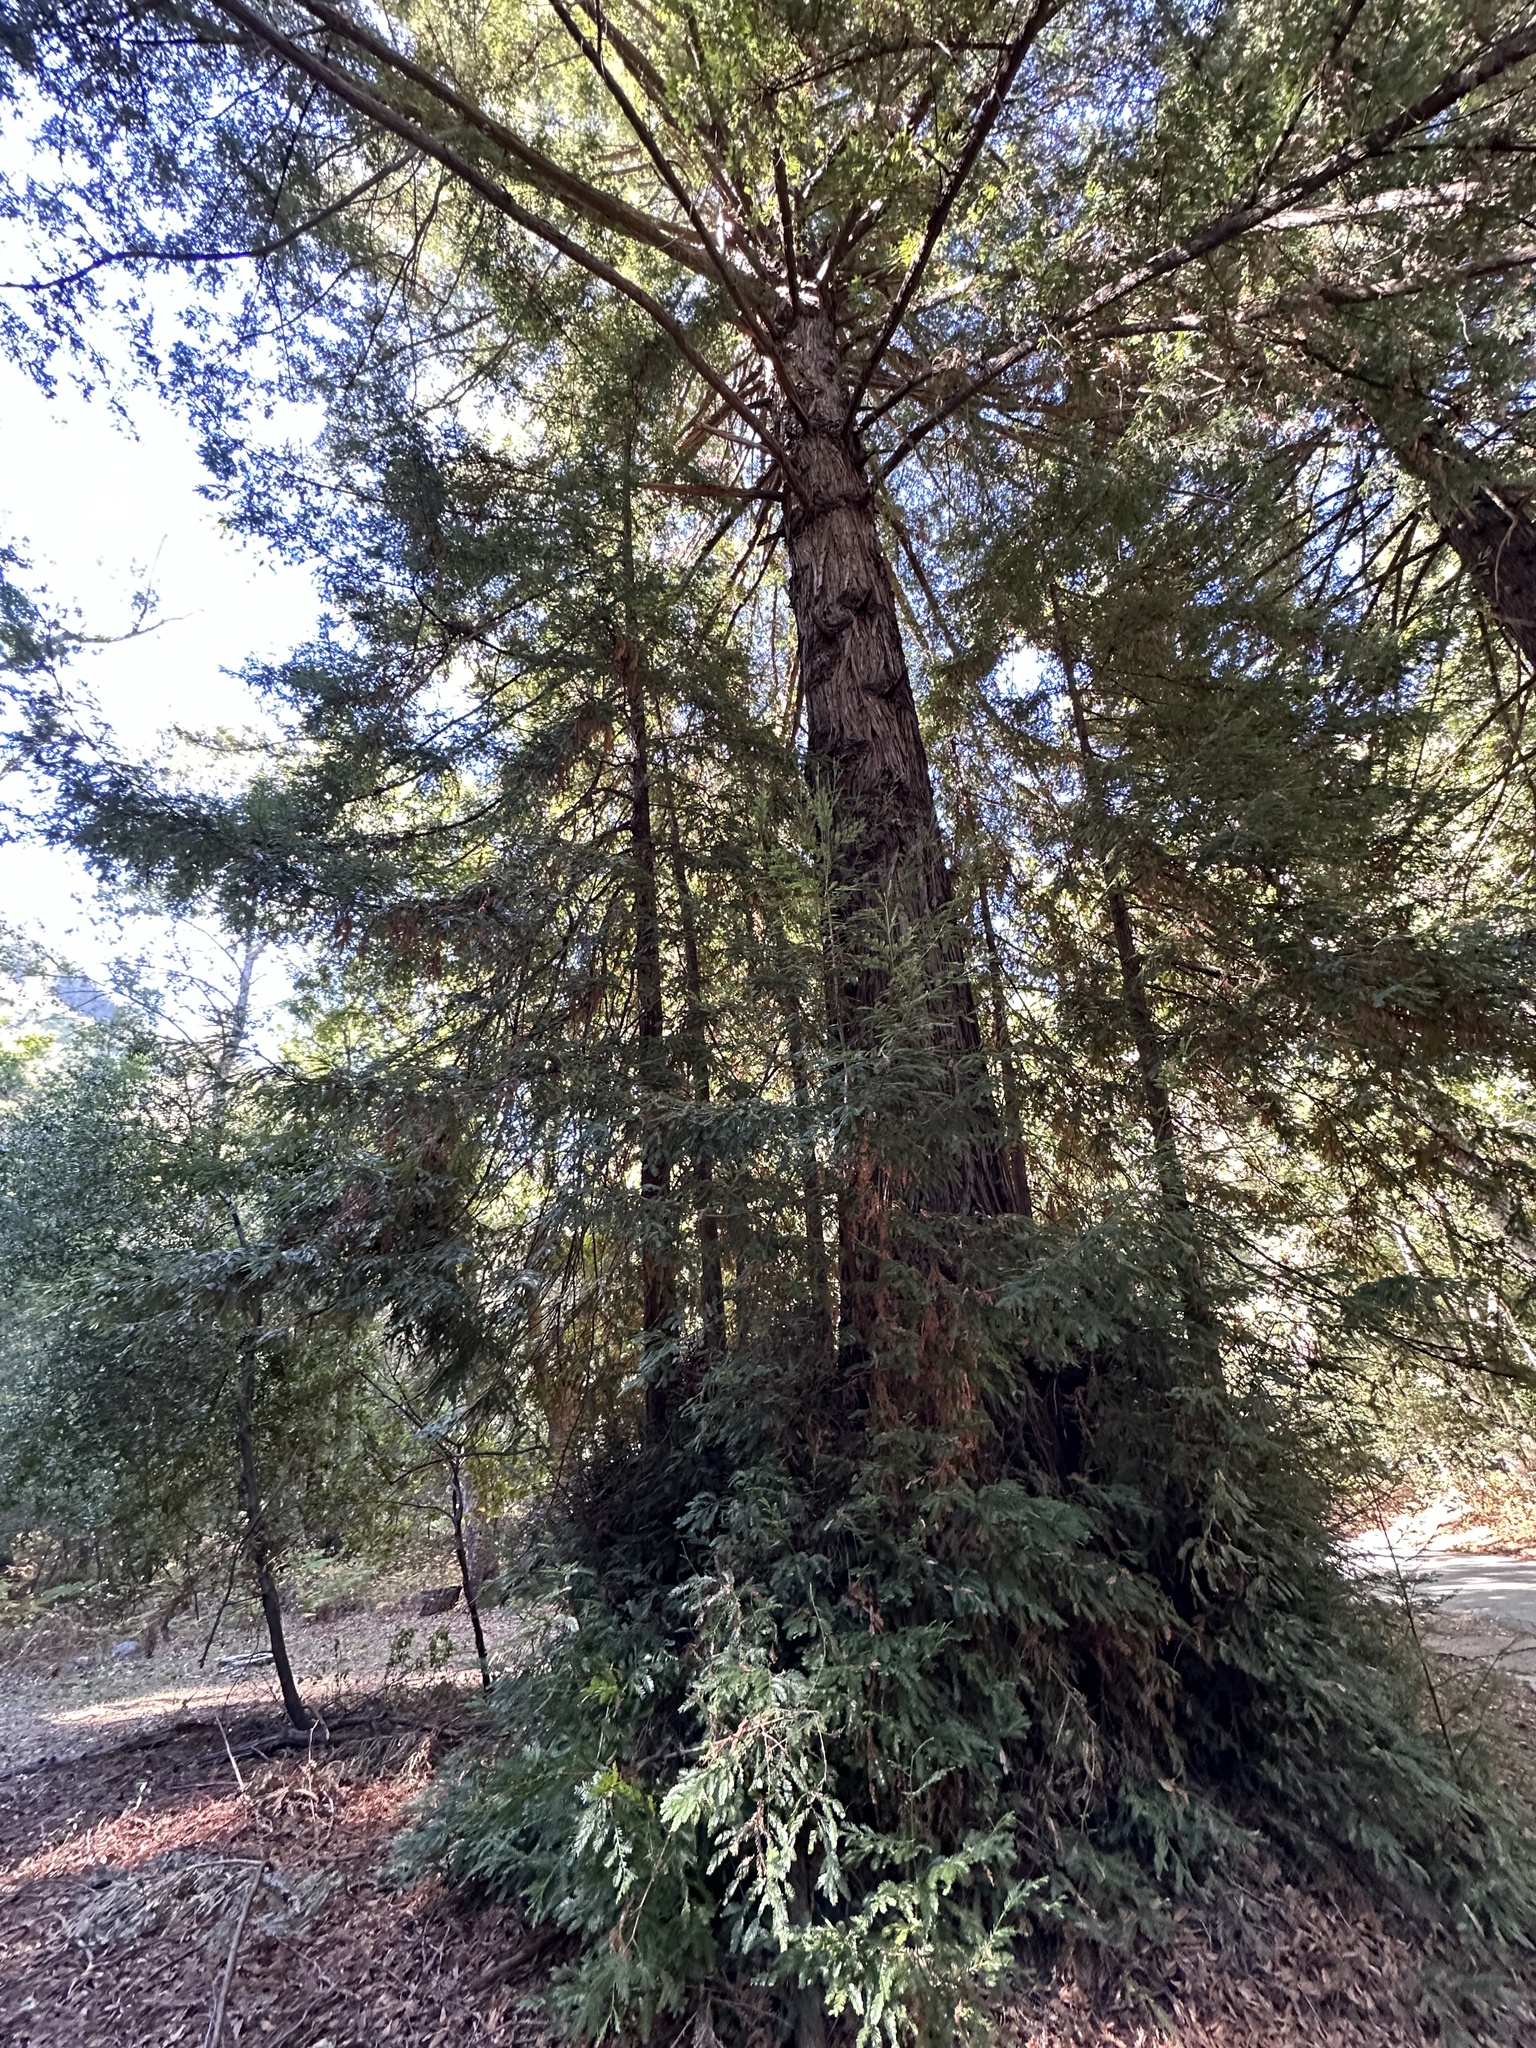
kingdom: Plantae
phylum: Tracheophyta
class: Pinopsida
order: Pinales
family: Cupressaceae
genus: Sequoia
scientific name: Sequoia sempervirens
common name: Coast redwood
